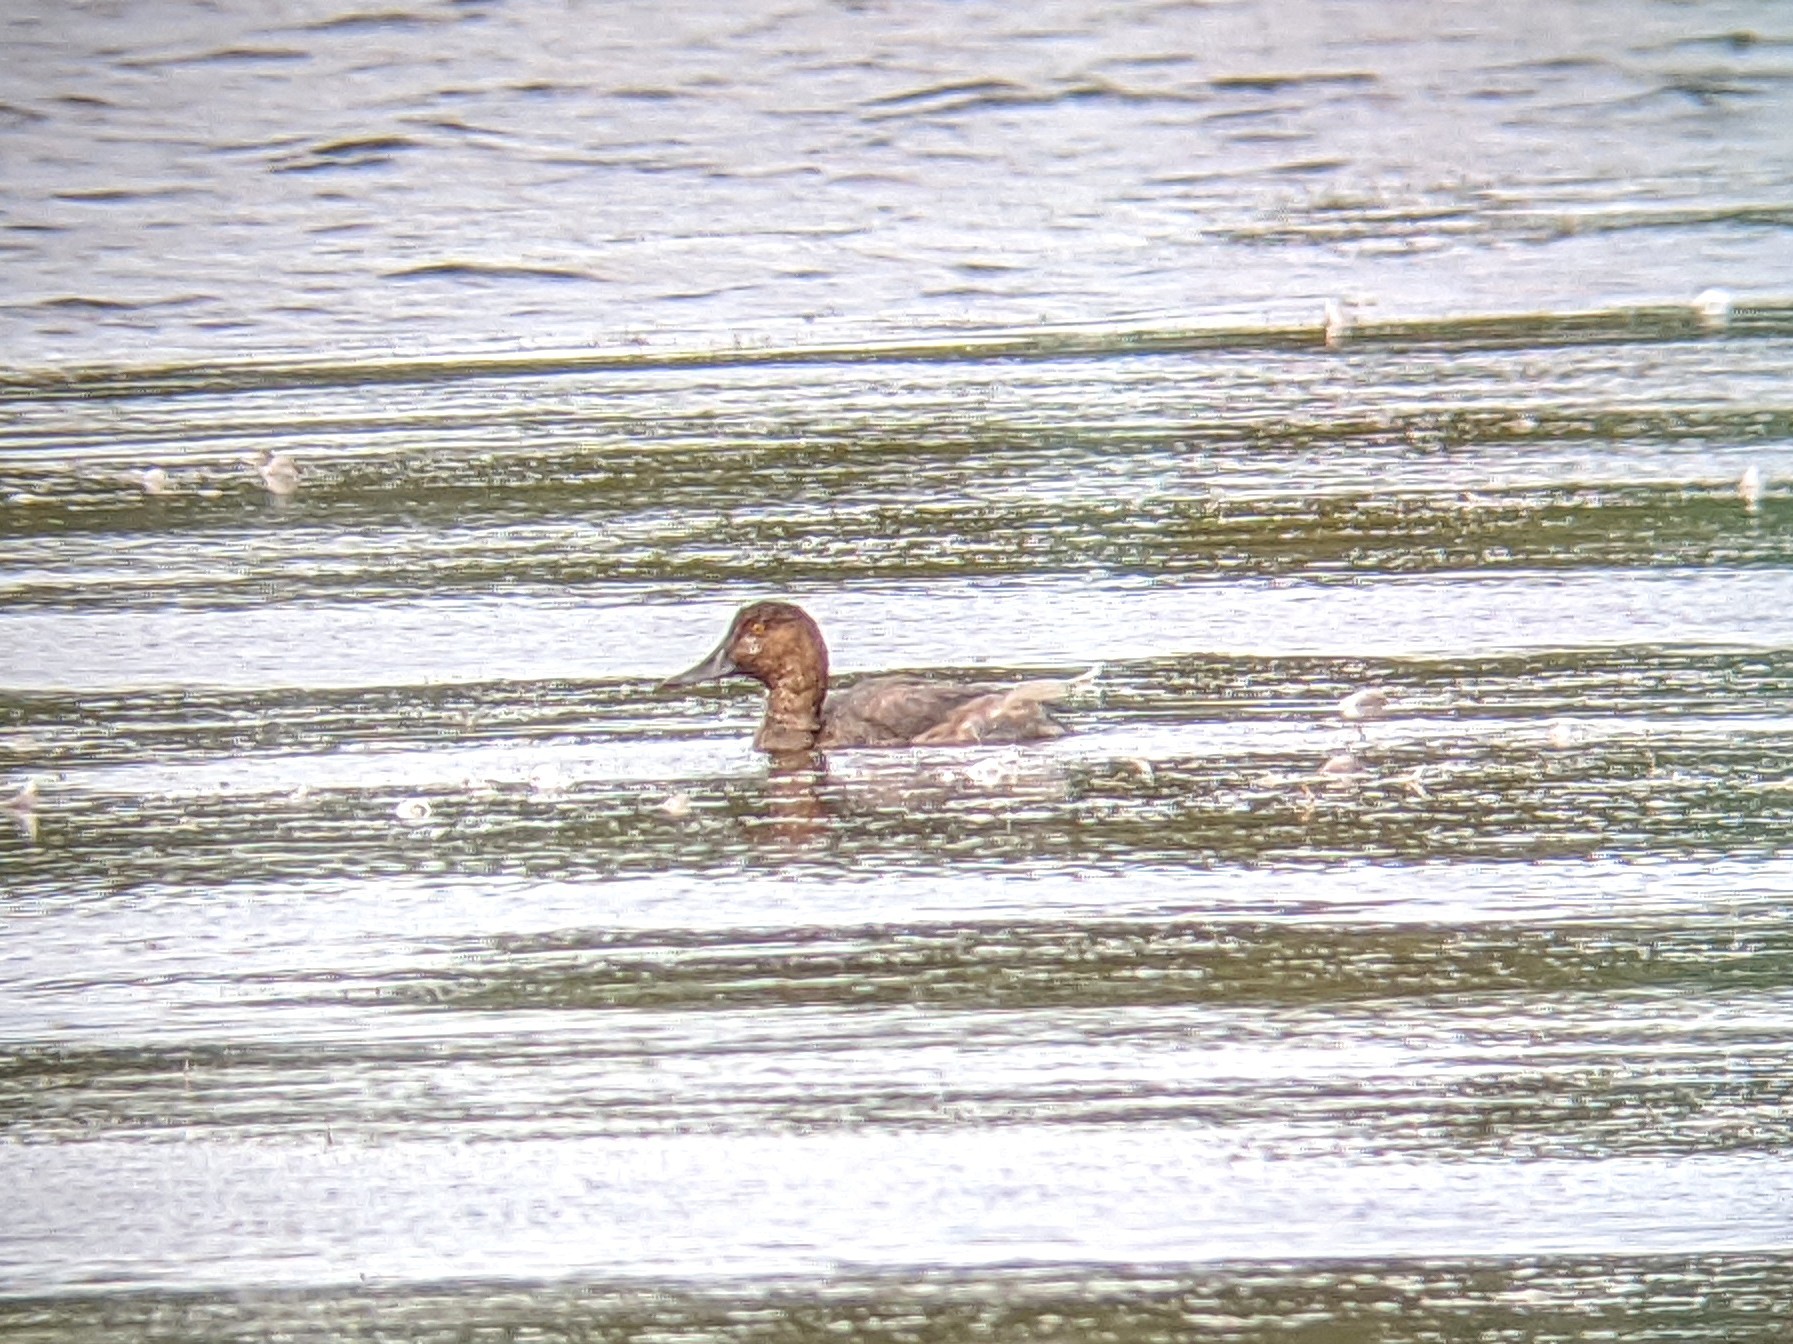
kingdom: Animalia
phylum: Chordata
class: Aves
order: Anseriformes
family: Anatidae
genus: Aythya
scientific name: Aythya americana
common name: Redhead
